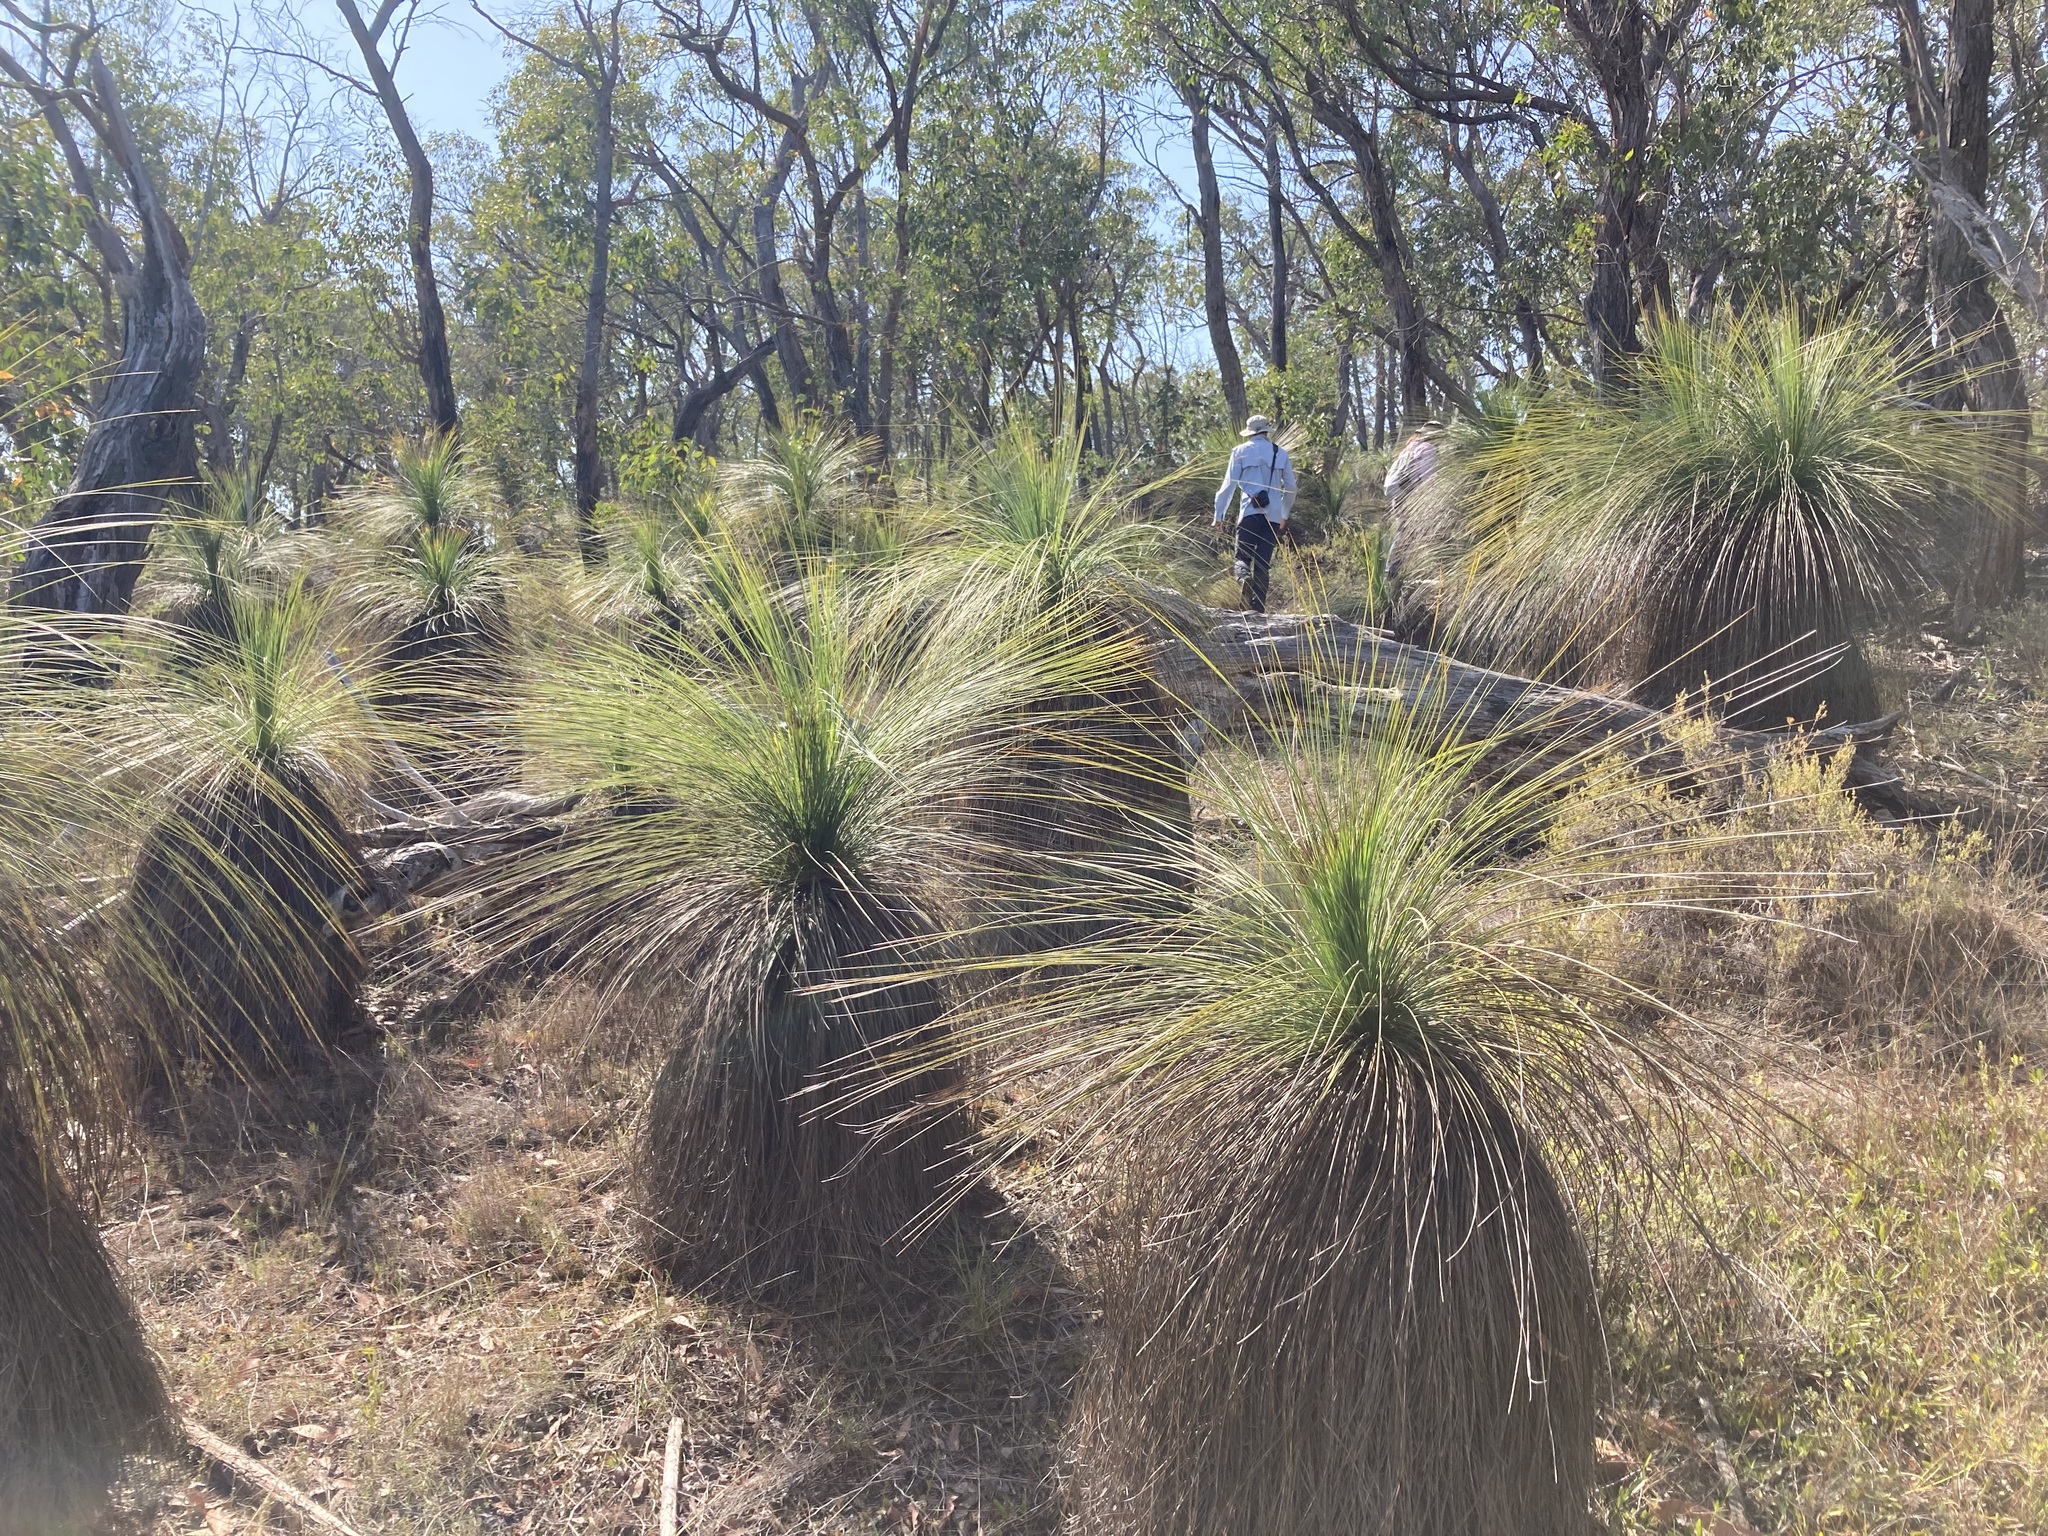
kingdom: Plantae
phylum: Tracheophyta
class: Liliopsida
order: Asparagales
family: Asphodelaceae
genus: Xanthorrhoea
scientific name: Xanthorrhoea glauca
